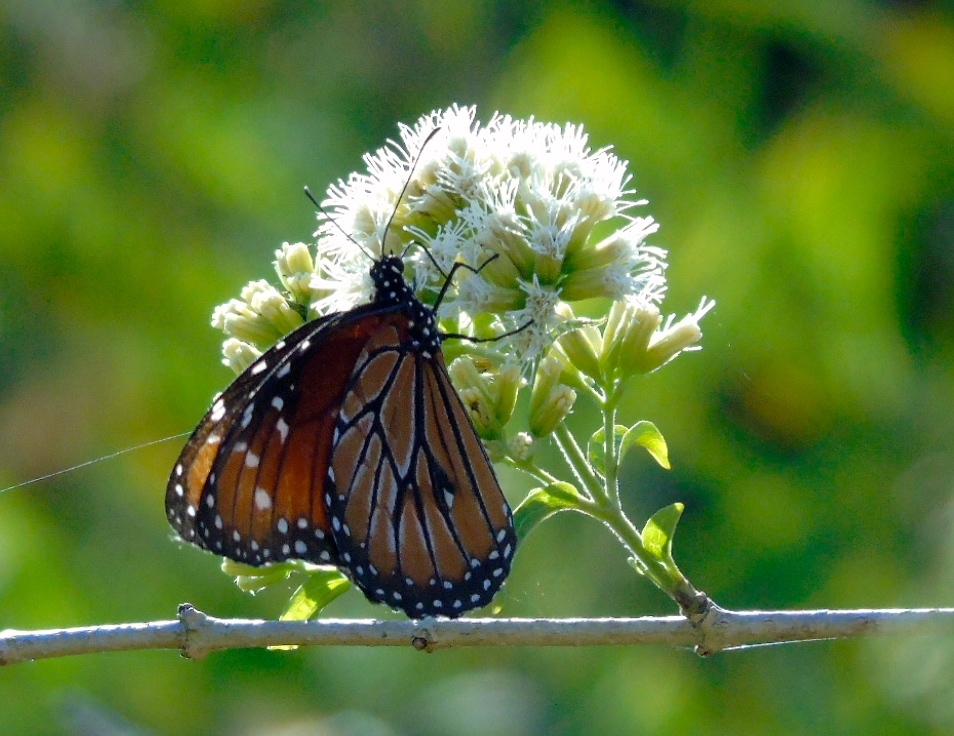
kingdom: Plantae
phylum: Tracheophyta
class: Magnoliopsida
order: Asterales
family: Asteraceae
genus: Koanophyllon
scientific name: Koanophyllon albicaule
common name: Old women's walking stick
